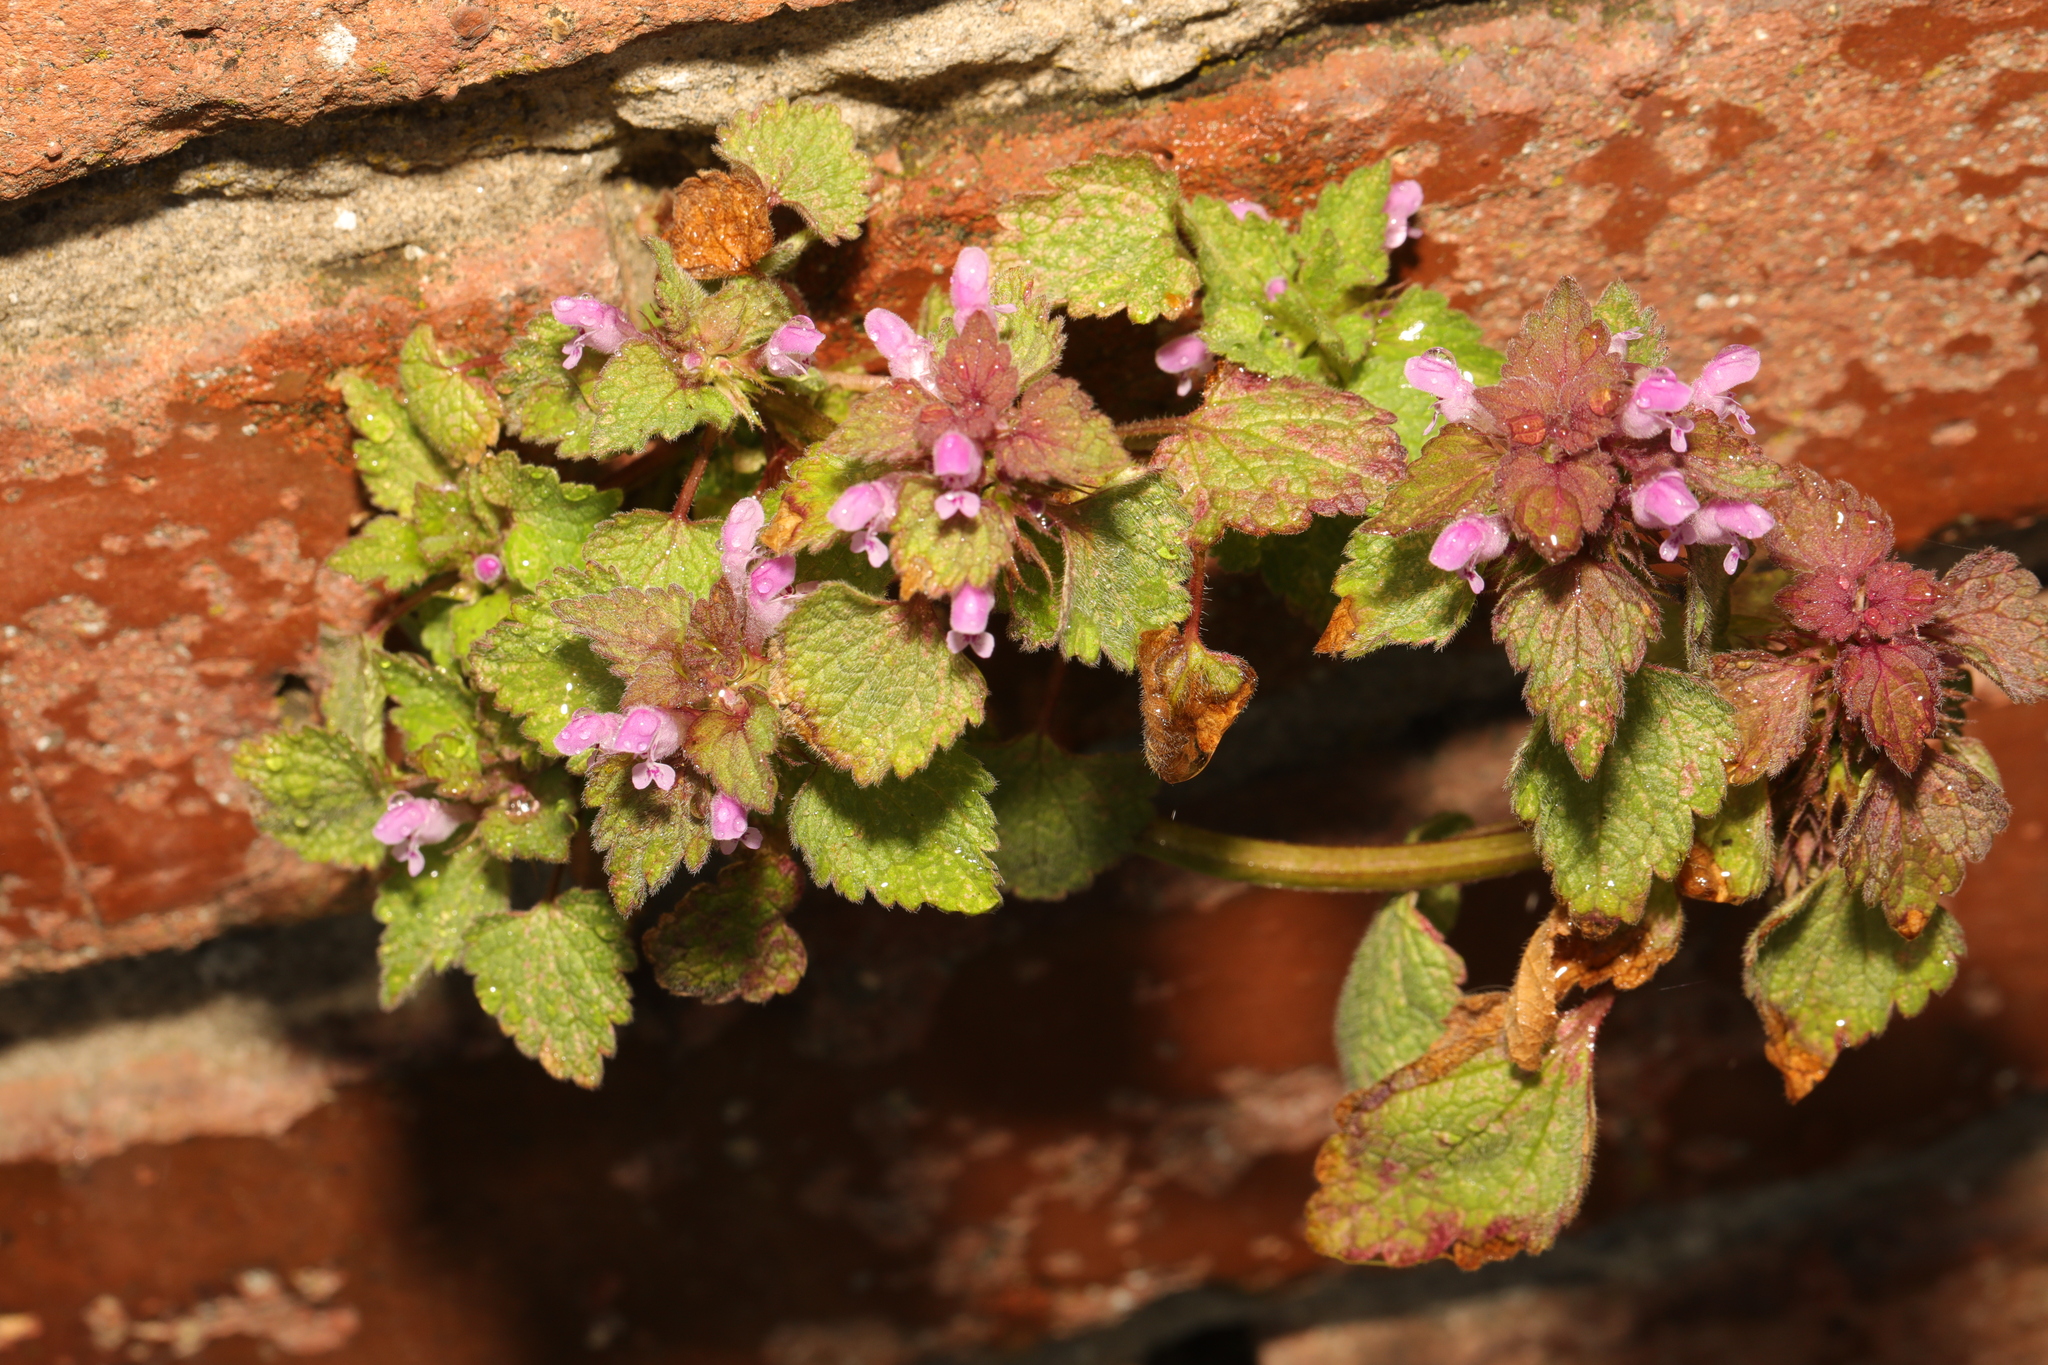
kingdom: Plantae
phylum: Tracheophyta
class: Magnoliopsida
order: Lamiales
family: Lamiaceae
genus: Lamium
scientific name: Lamium purpureum
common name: Red dead-nettle
